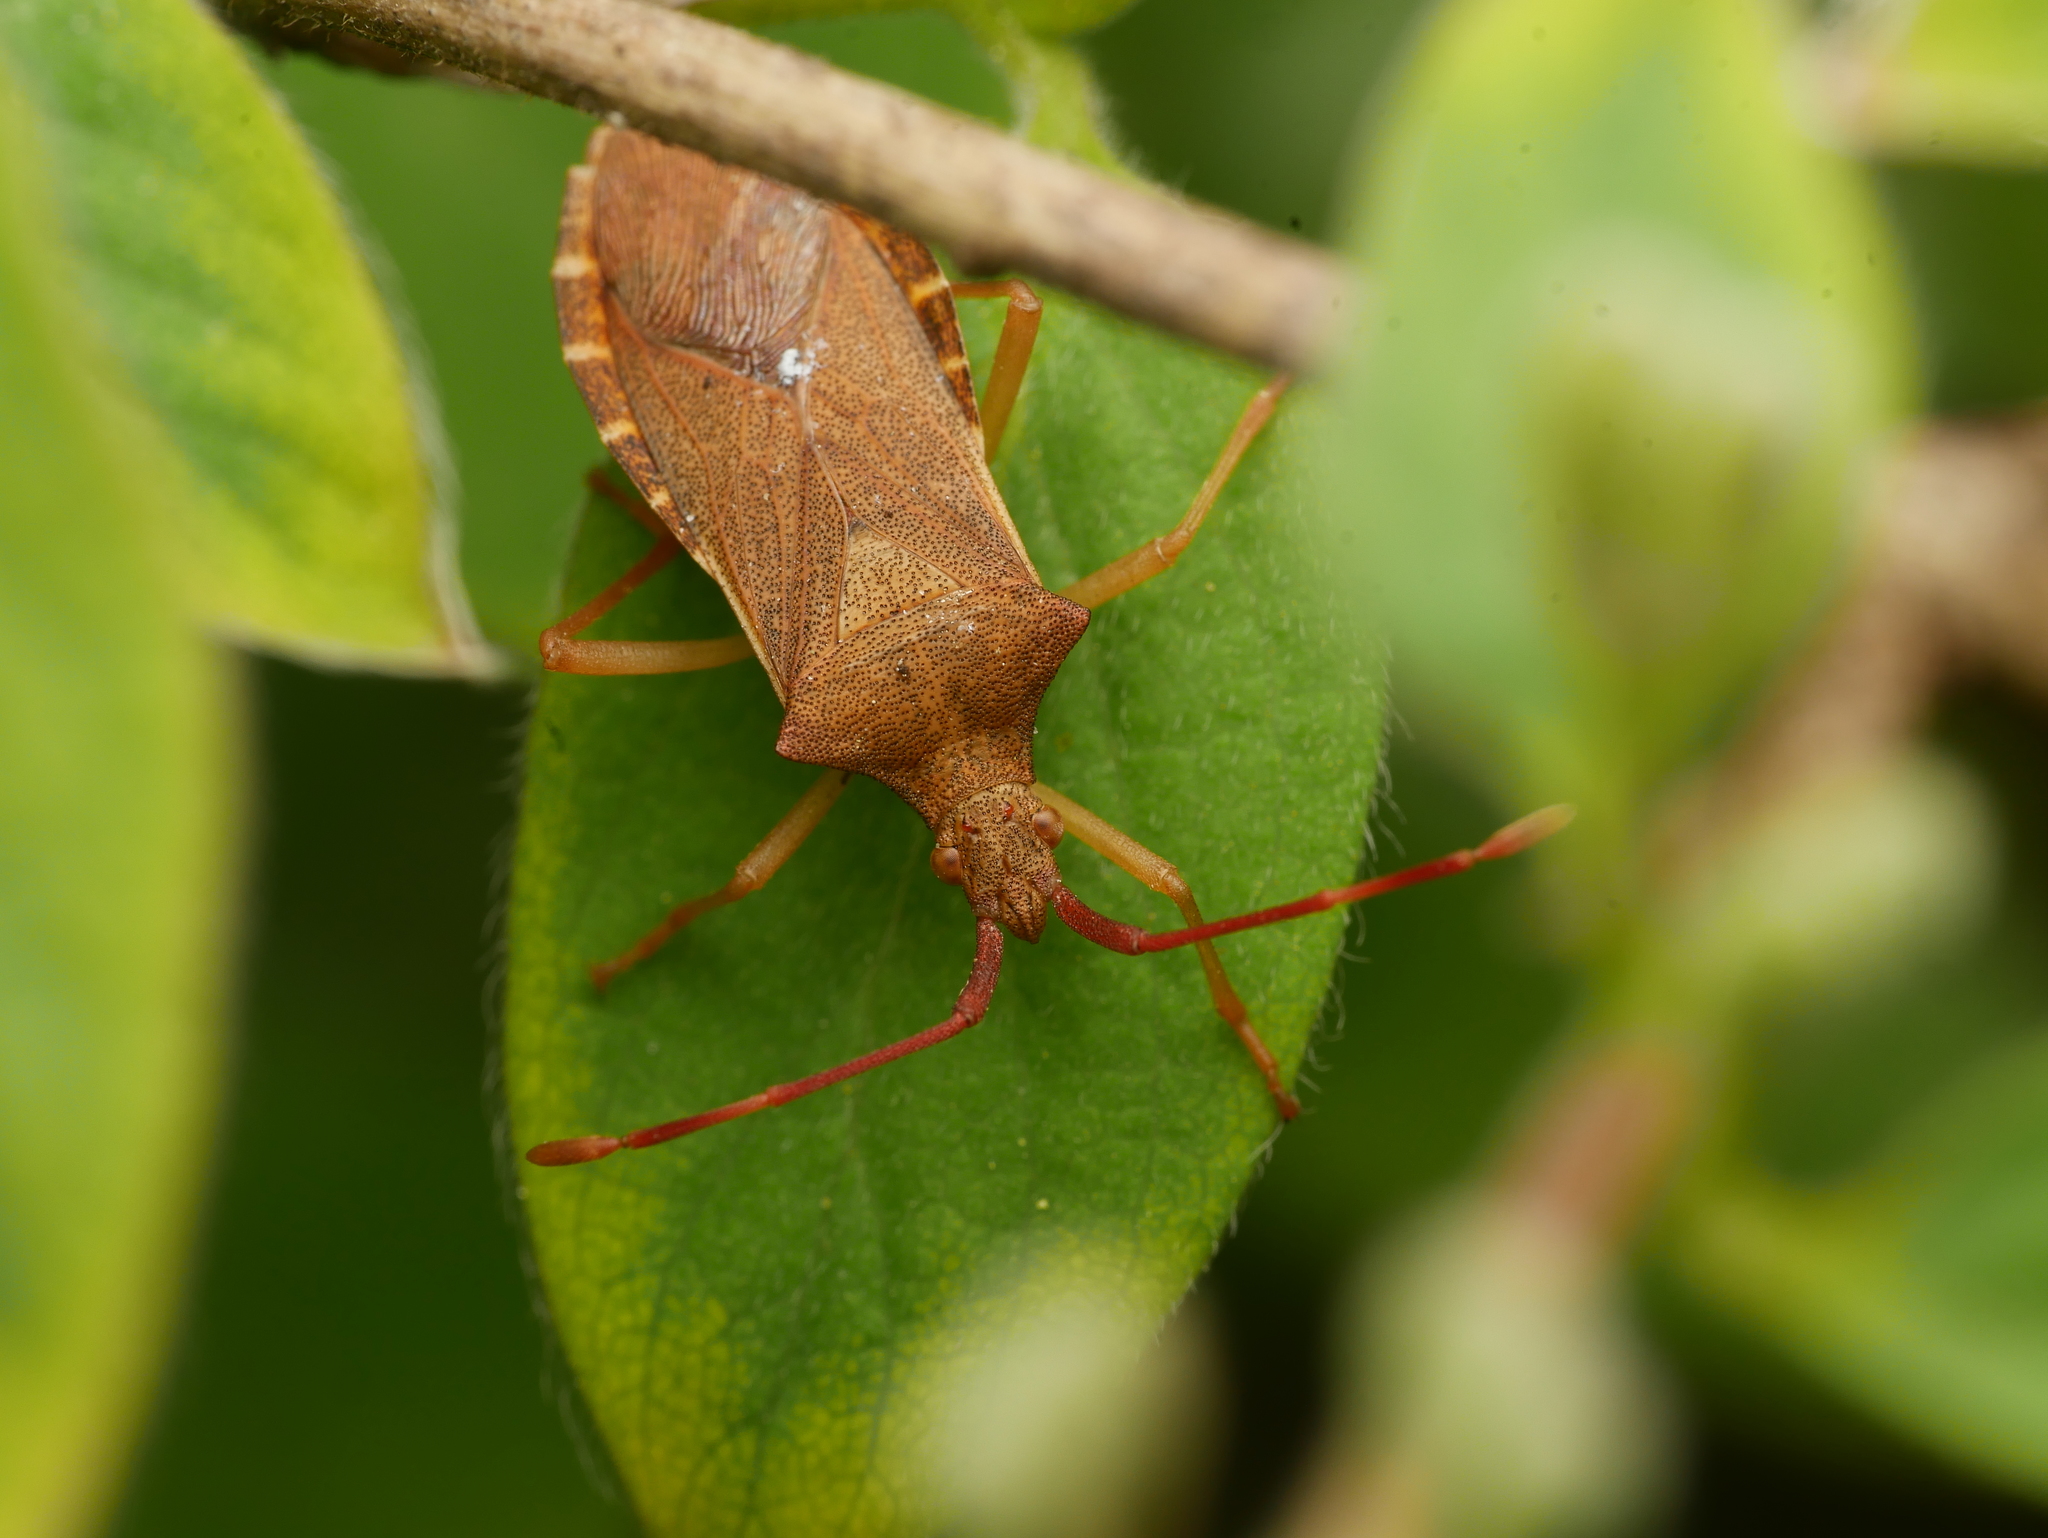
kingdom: Animalia
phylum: Arthropoda
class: Insecta
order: Hemiptera
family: Coreidae
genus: Gonocerus
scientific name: Gonocerus acuteangulatus
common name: Box bug
